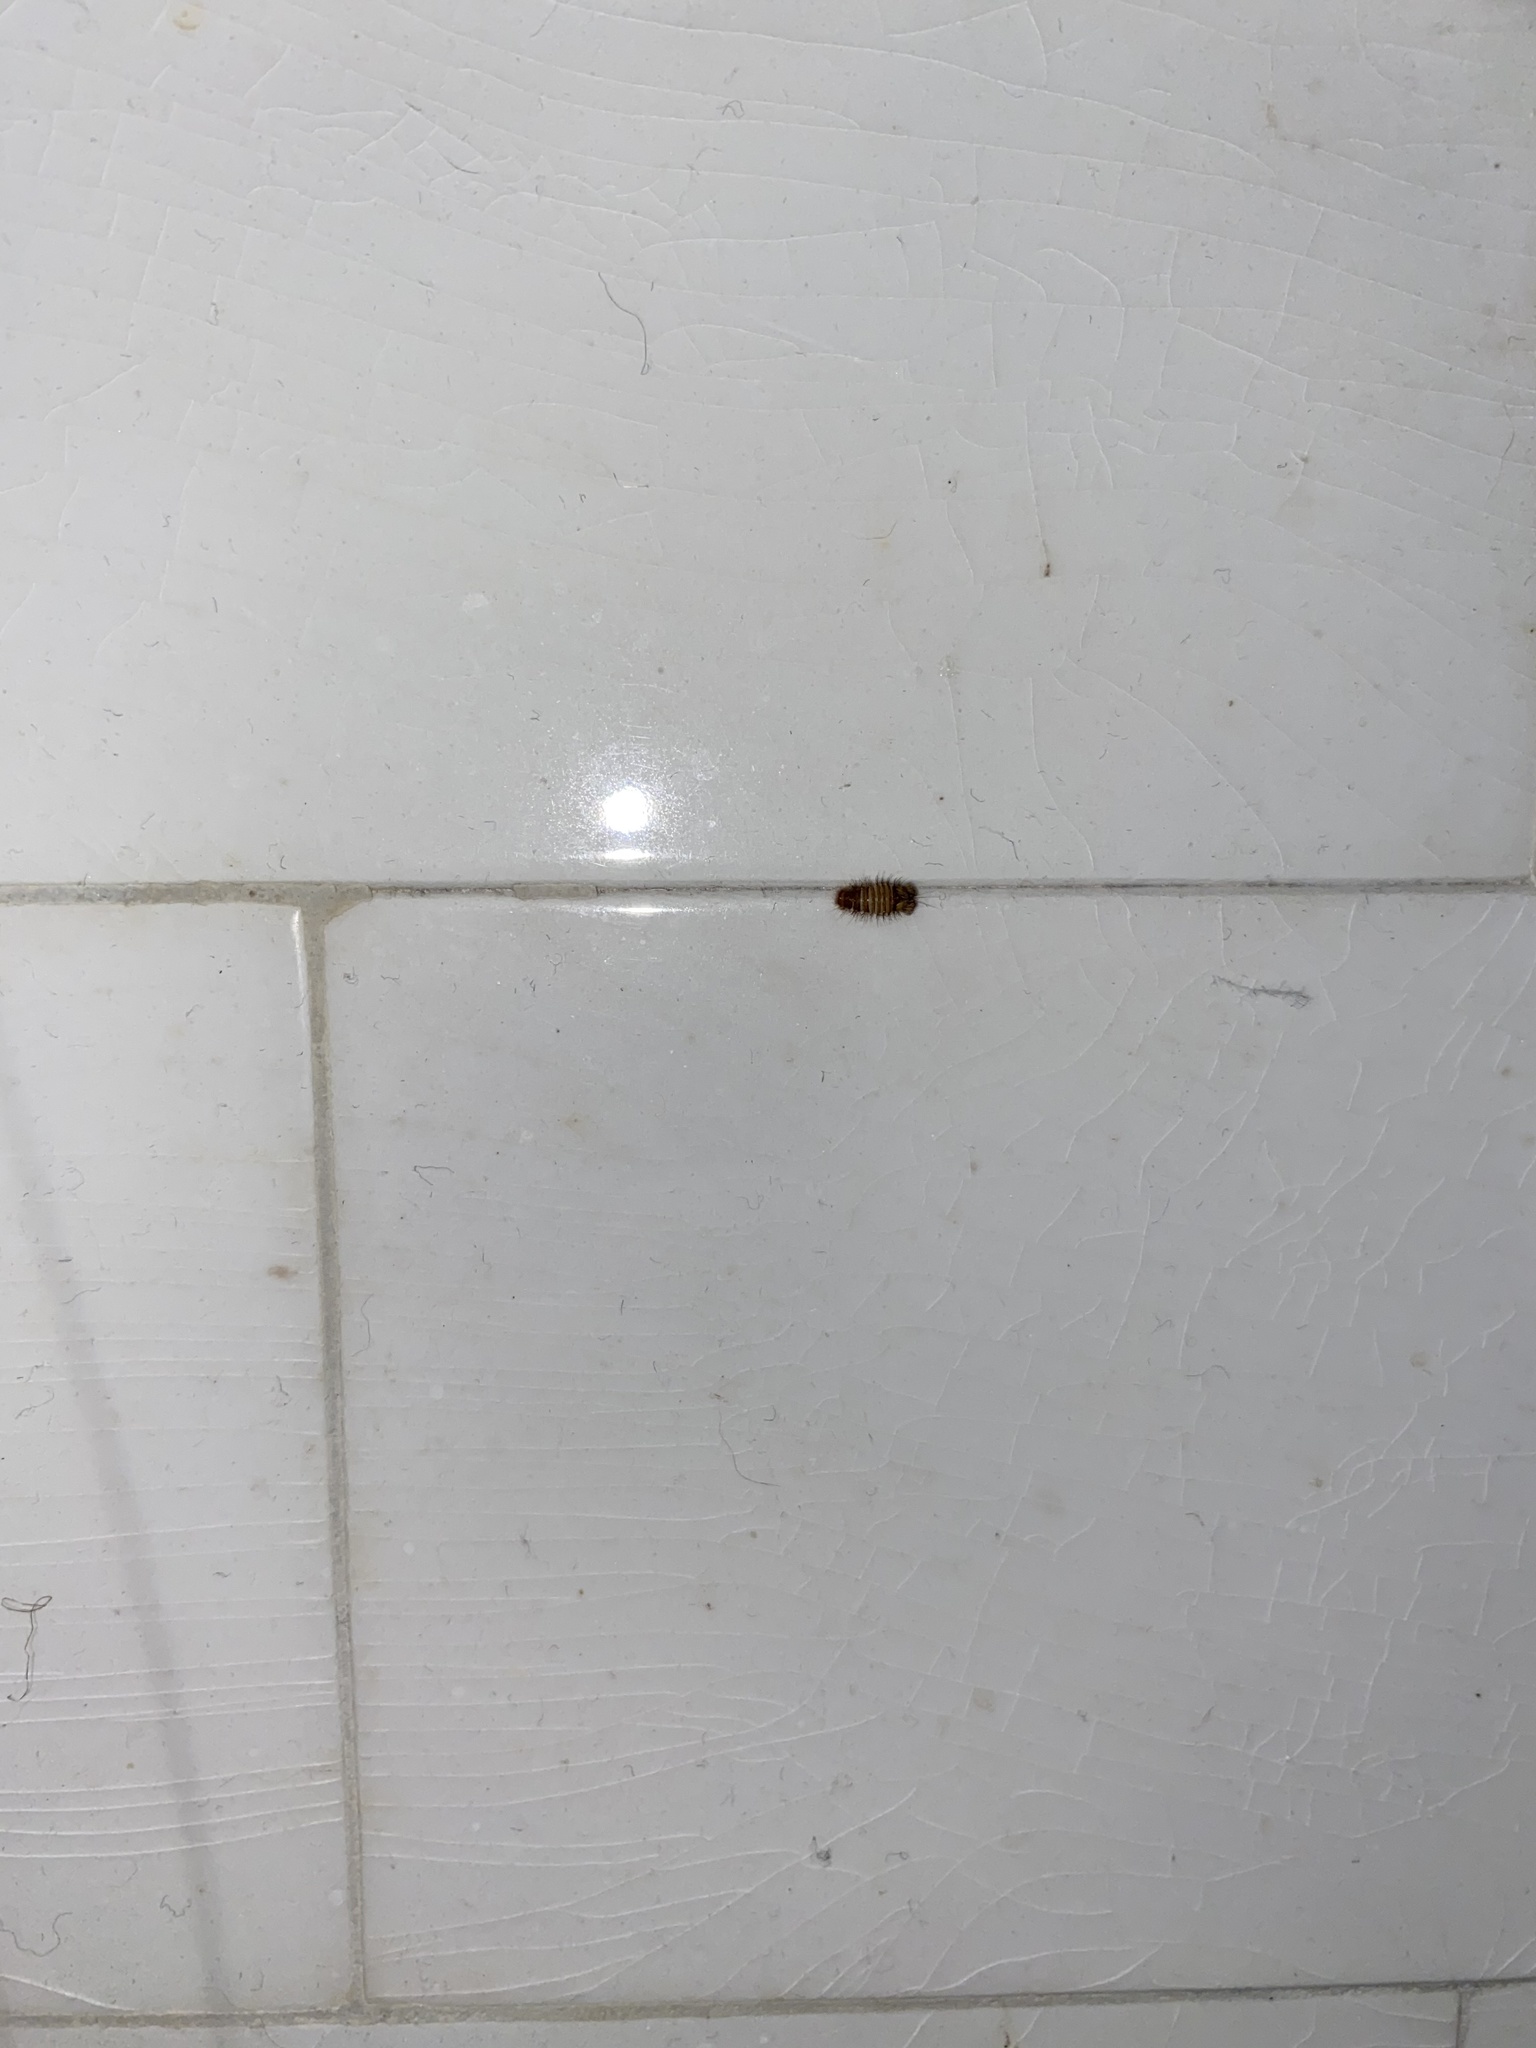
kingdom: Animalia
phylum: Arthropoda
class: Insecta
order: Coleoptera
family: Dermestidae
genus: Anthrenus
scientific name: Anthrenus verbasci
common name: Varied carpet beetle
